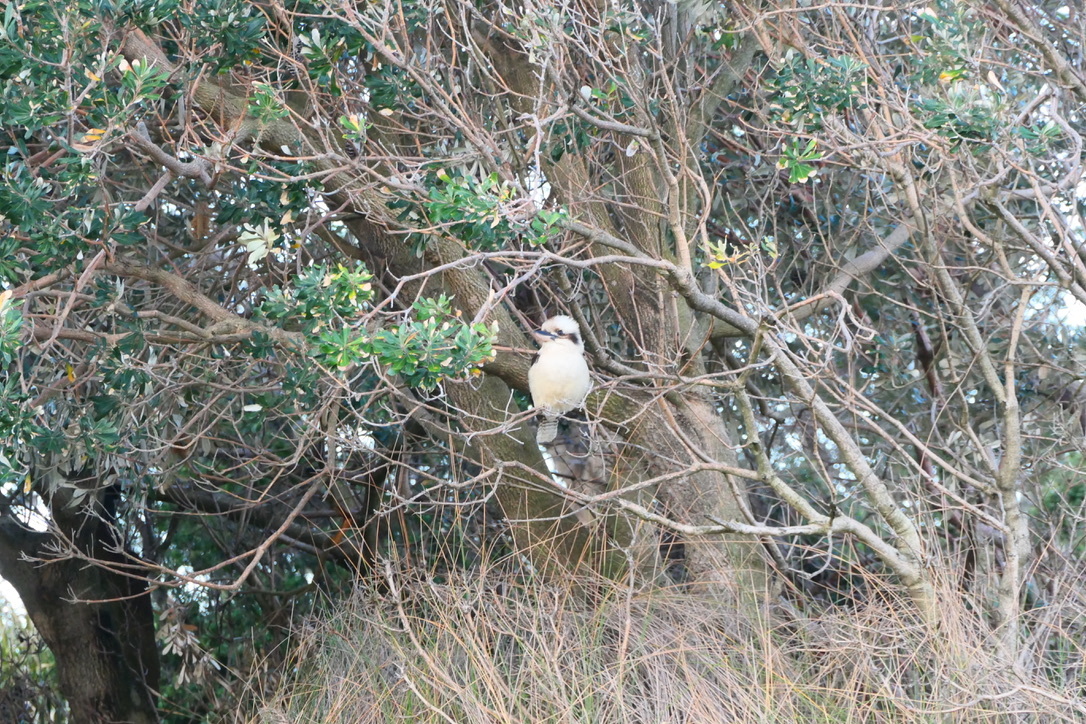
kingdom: Animalia
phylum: Chordata
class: Aves
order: Coraciiformes
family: Alcedinidae
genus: Dacelo
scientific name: Dacelo novaeguineae
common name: Laughing kookaburra
